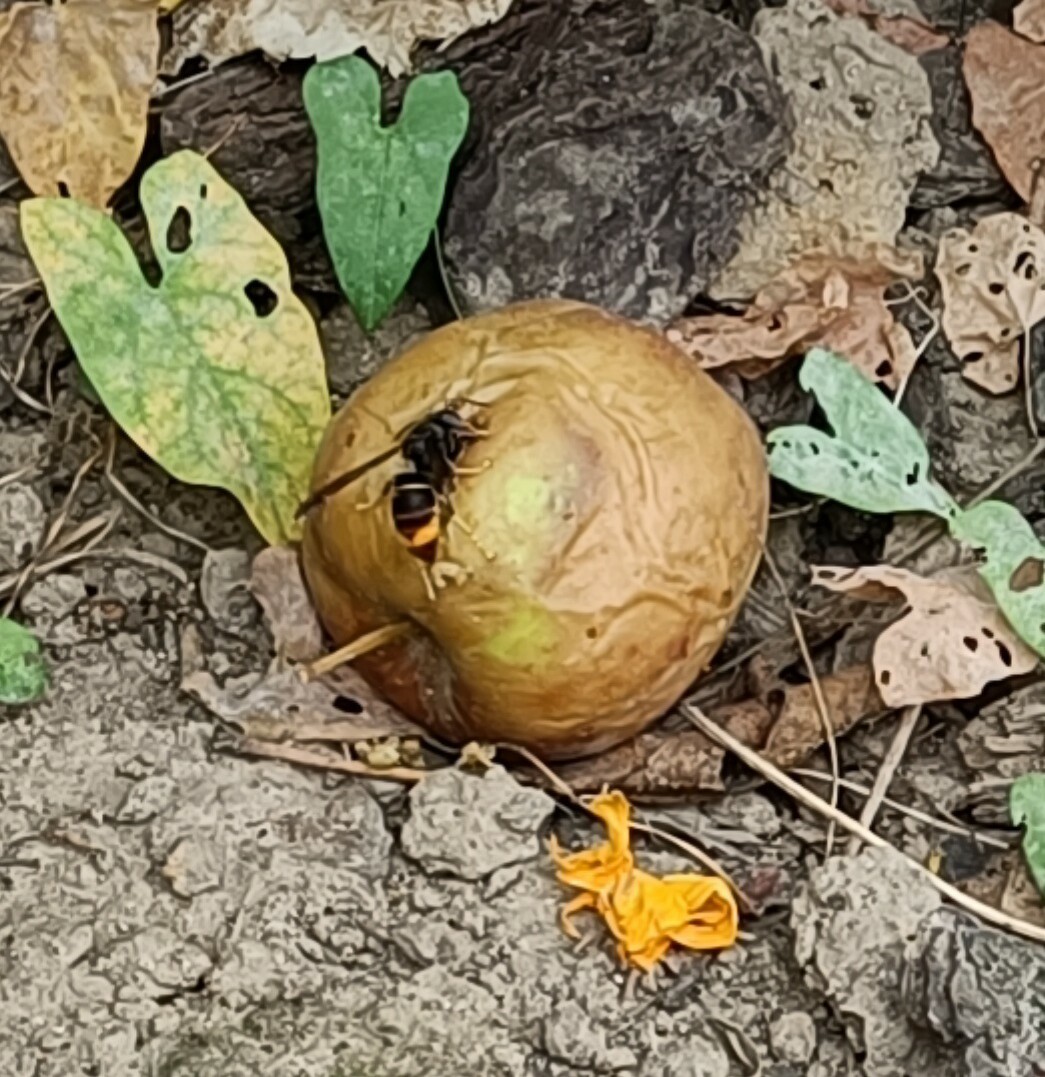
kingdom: Animalia
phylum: Arthropoda
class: Insecta
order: Hymenoptera
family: Vespidae
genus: Vespa
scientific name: Vespa velutina
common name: Asian hornet
